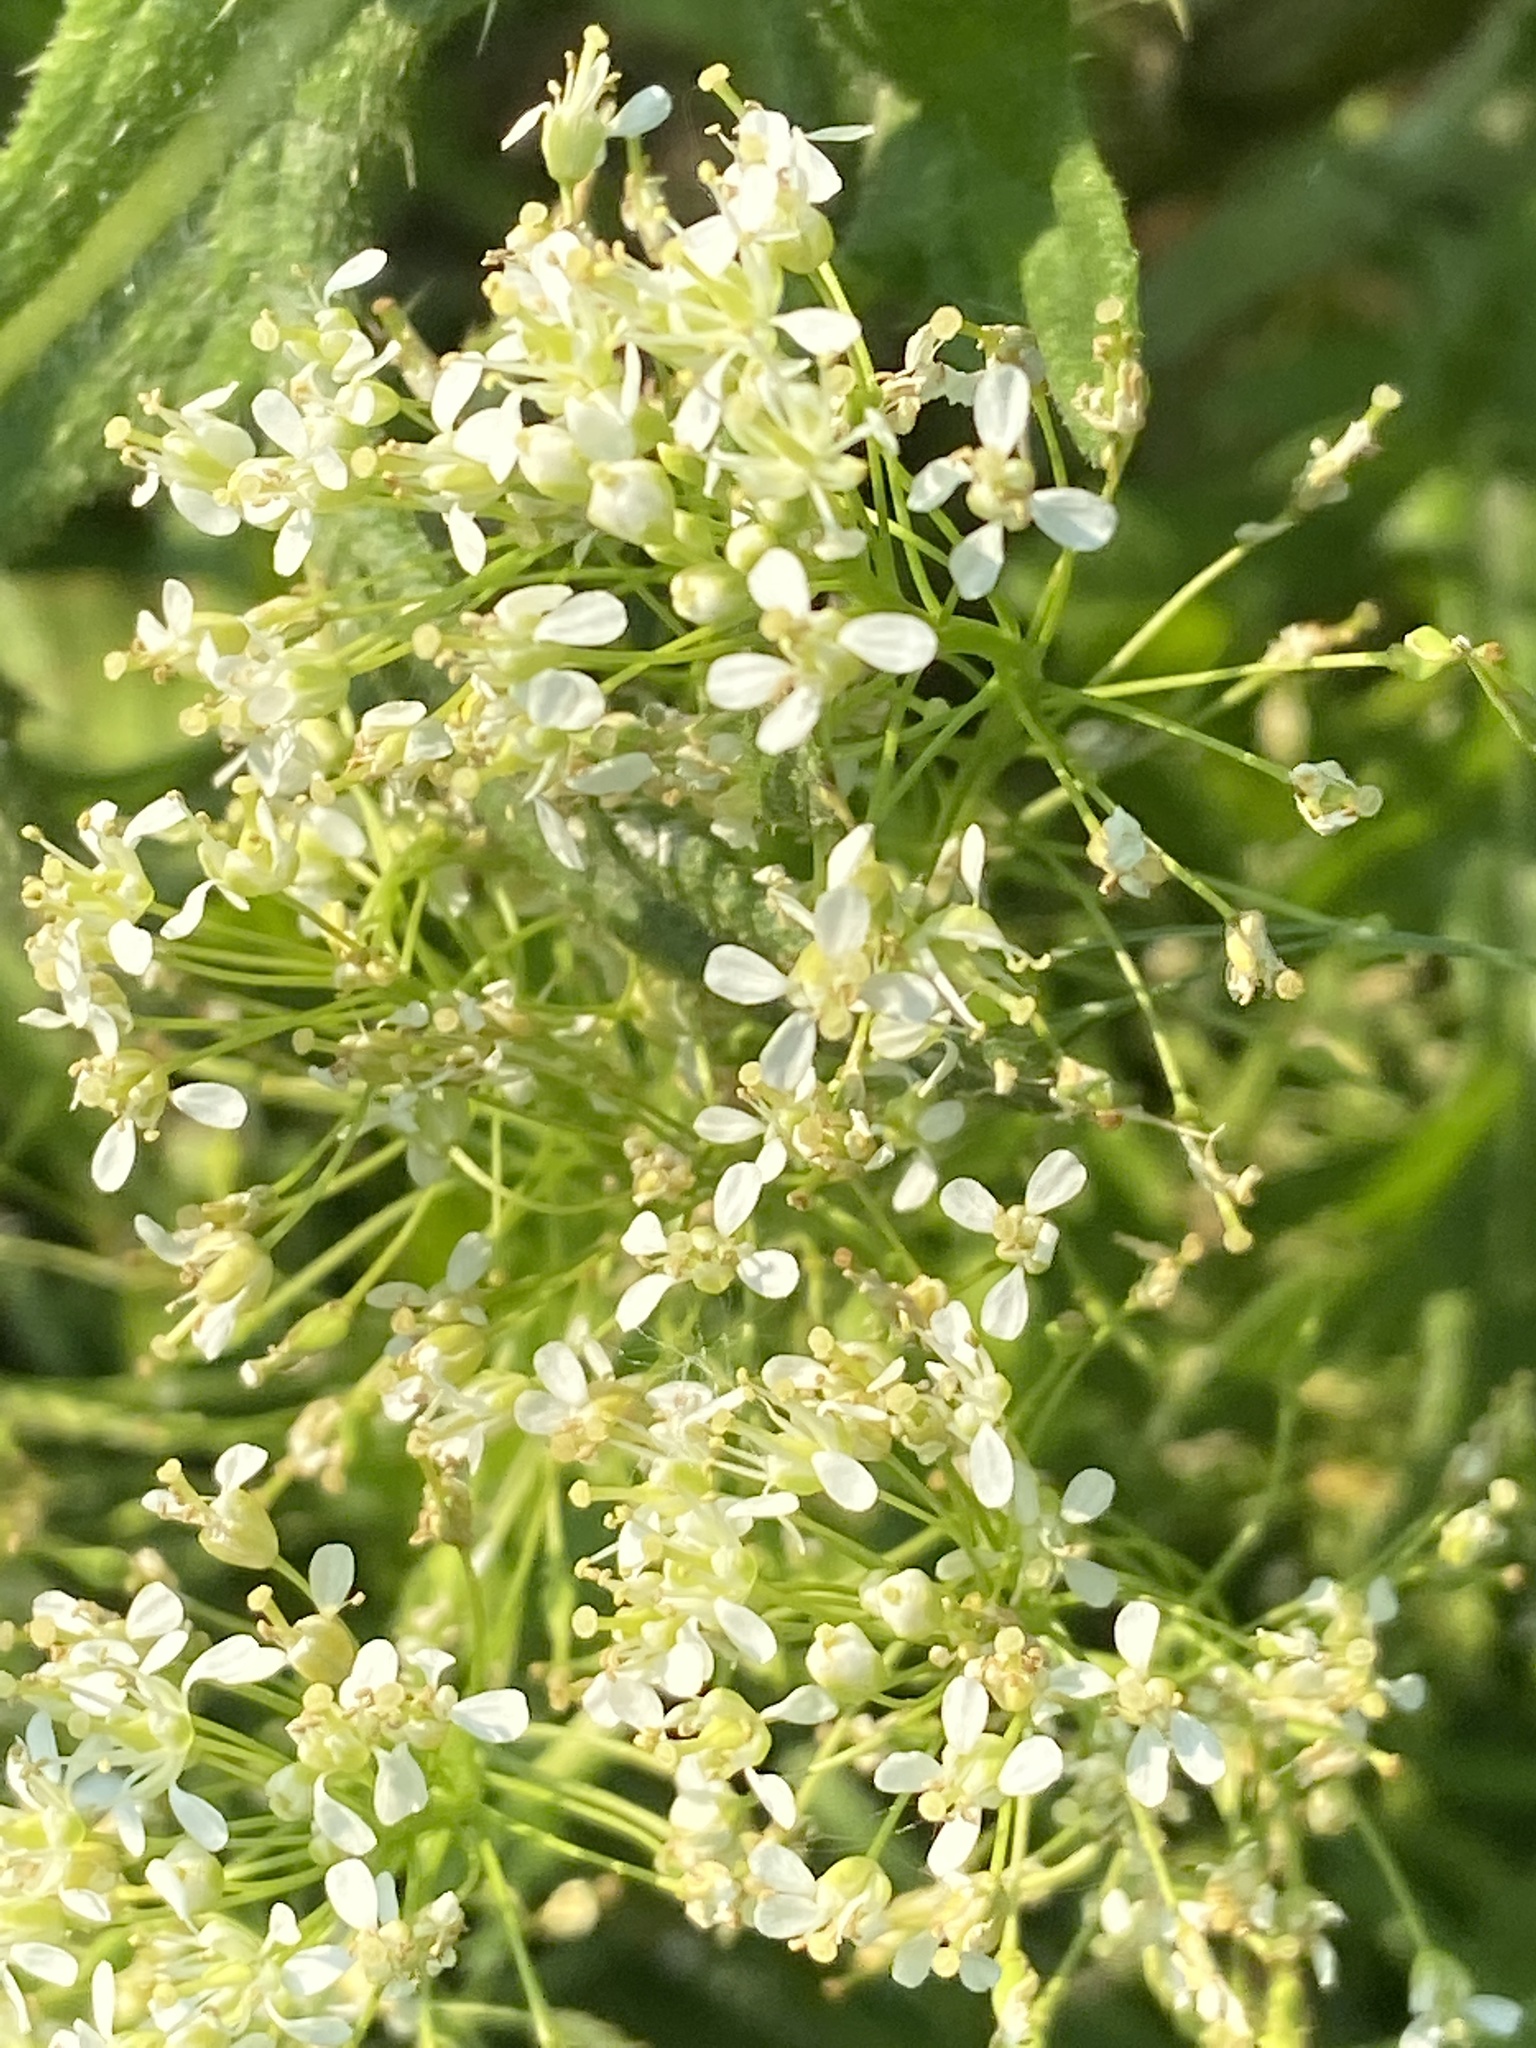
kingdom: Plantae
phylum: Tracheophyta
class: Magnoliopsida
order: Brassicales
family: Brassicaceae
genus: Lepidium
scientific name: Lepidium draba
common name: Hoary cress
